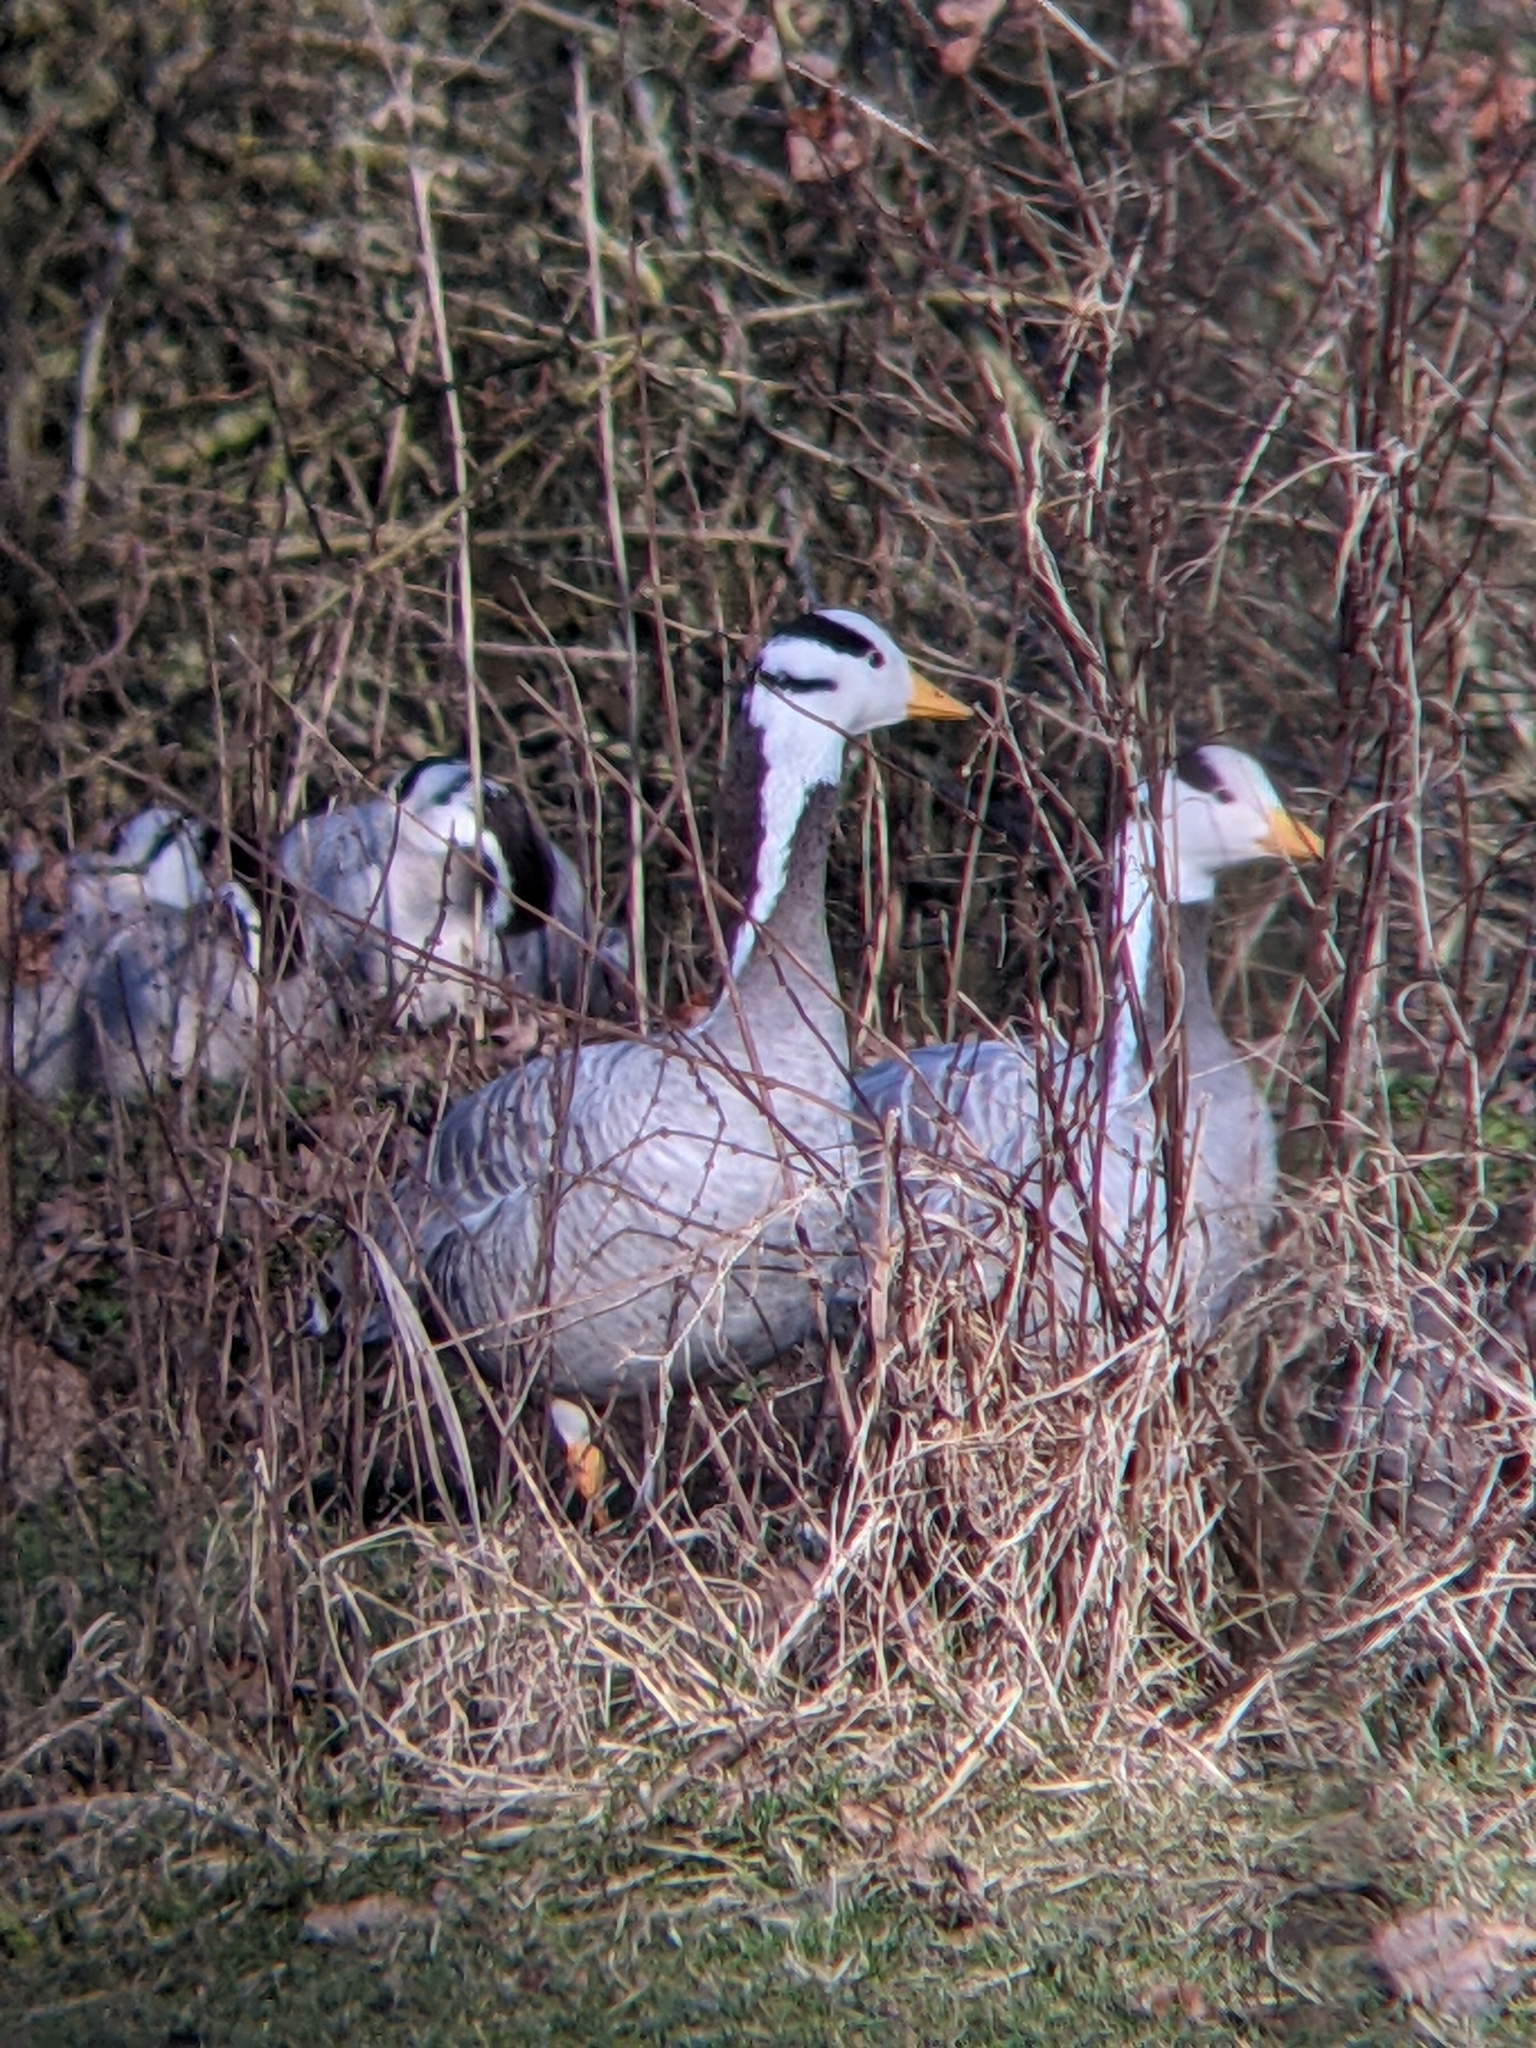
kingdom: Animalia
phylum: Chordata
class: Aves
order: Anseriformes
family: Anatidae
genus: Anser
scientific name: Anser indicus
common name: Bar-headed goose
